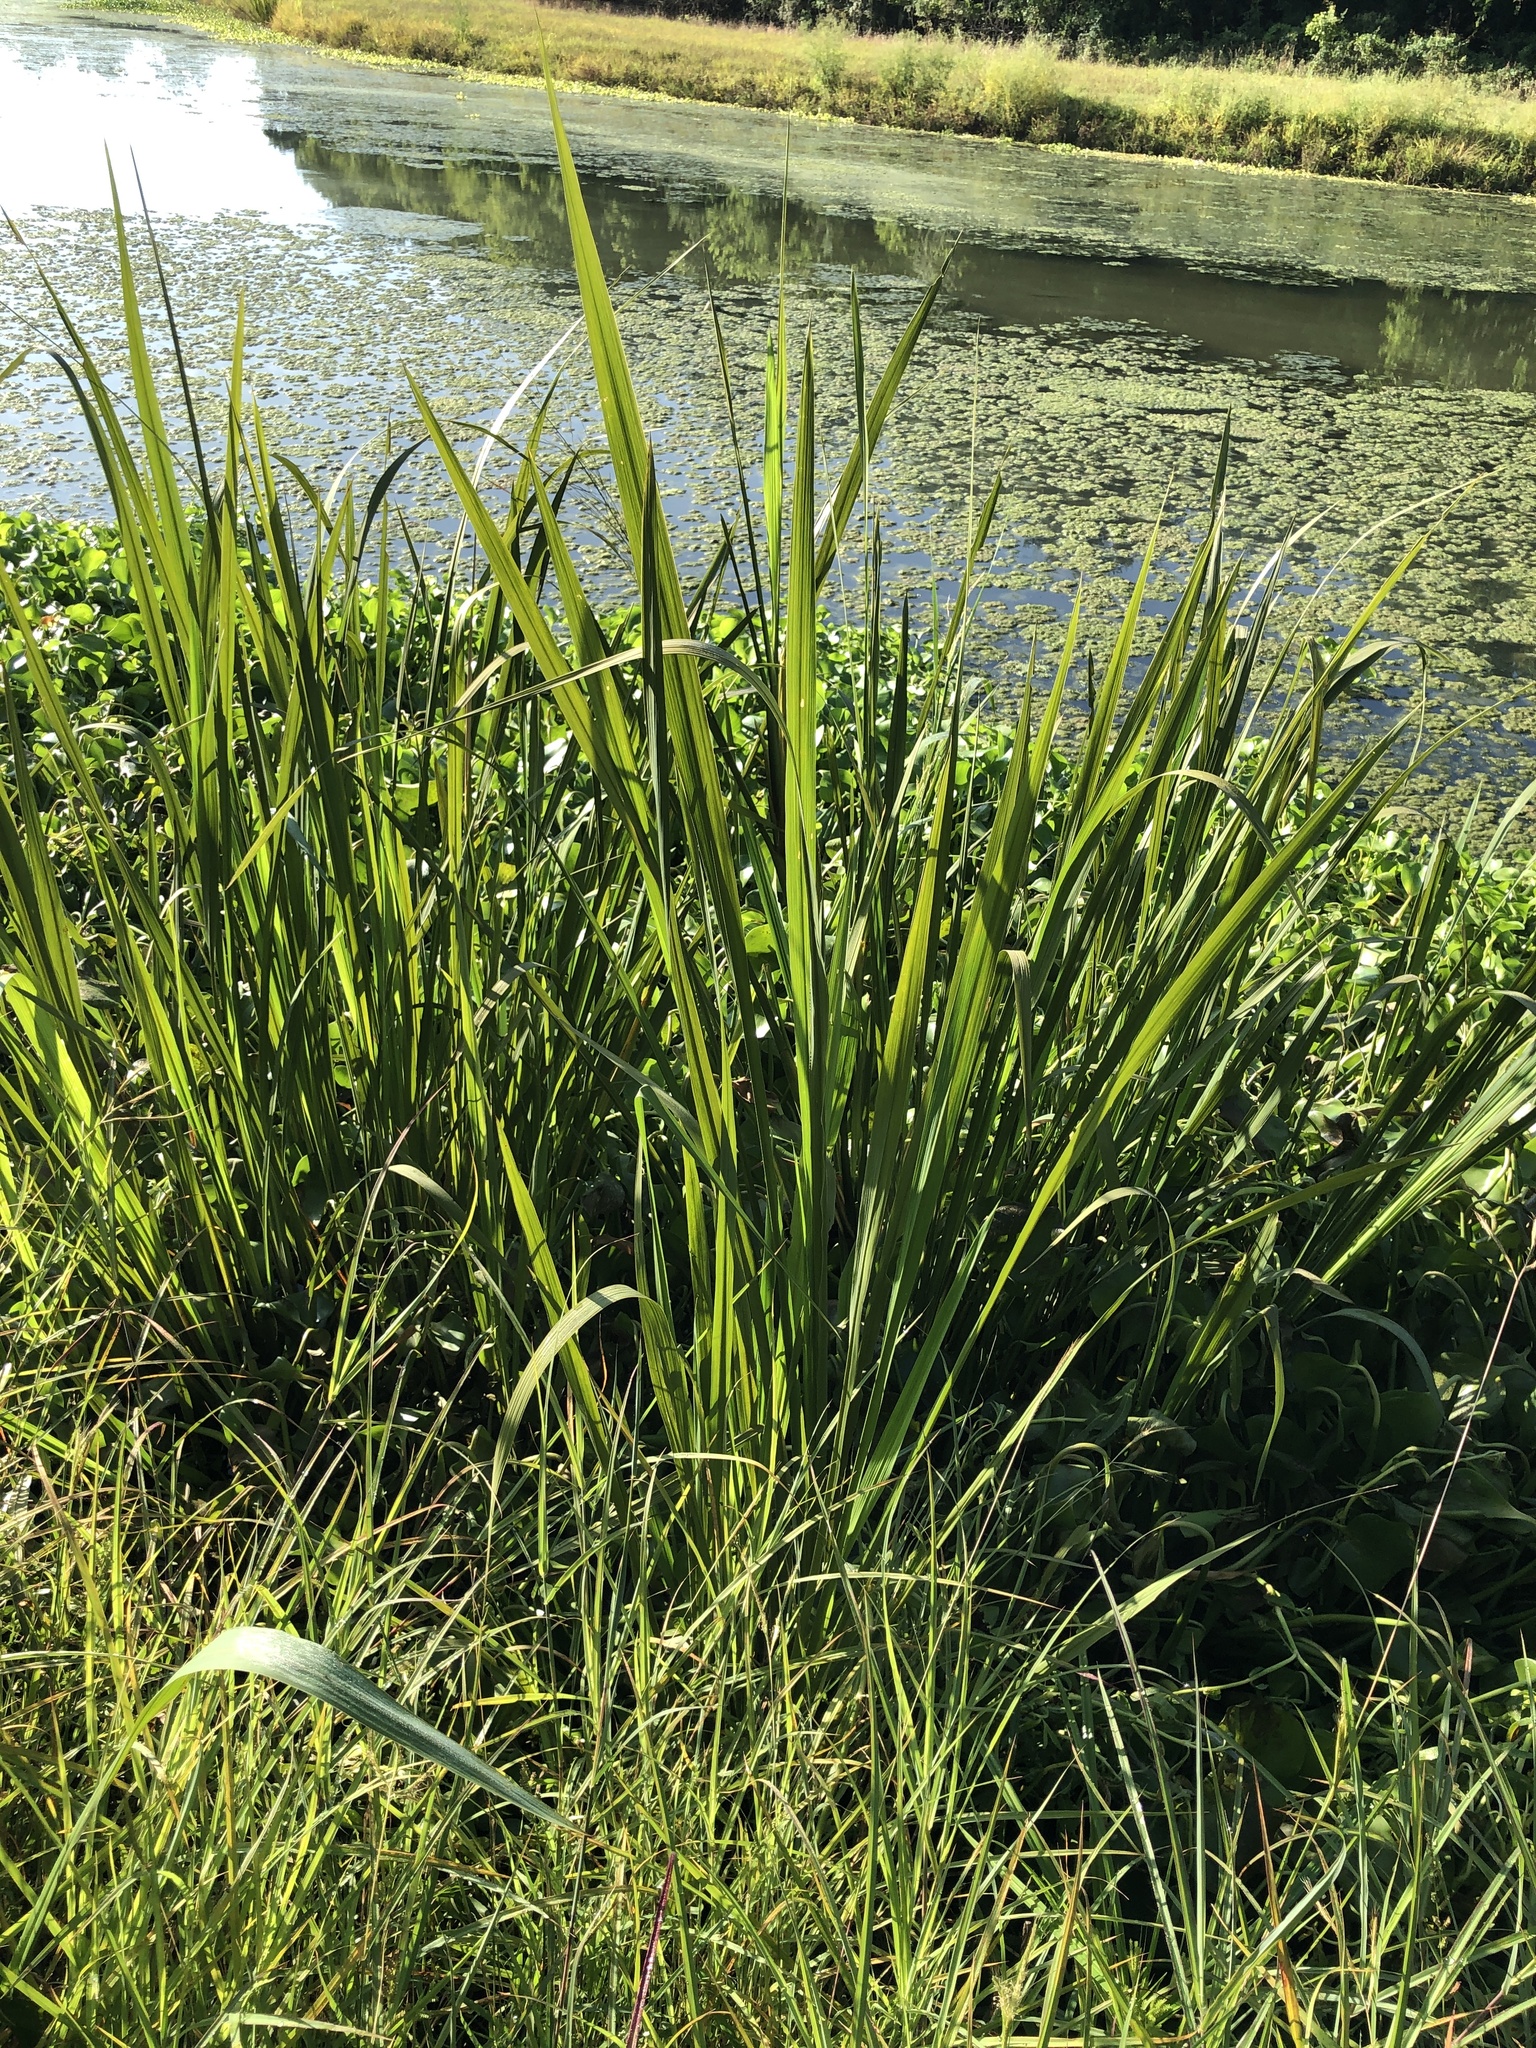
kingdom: Plantae
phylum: Tracheophyta
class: Liliopsida
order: Poales
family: Poaceae
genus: Zizaniopsis
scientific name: Zizaniopsis miliacea
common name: Giant-cutgrass
